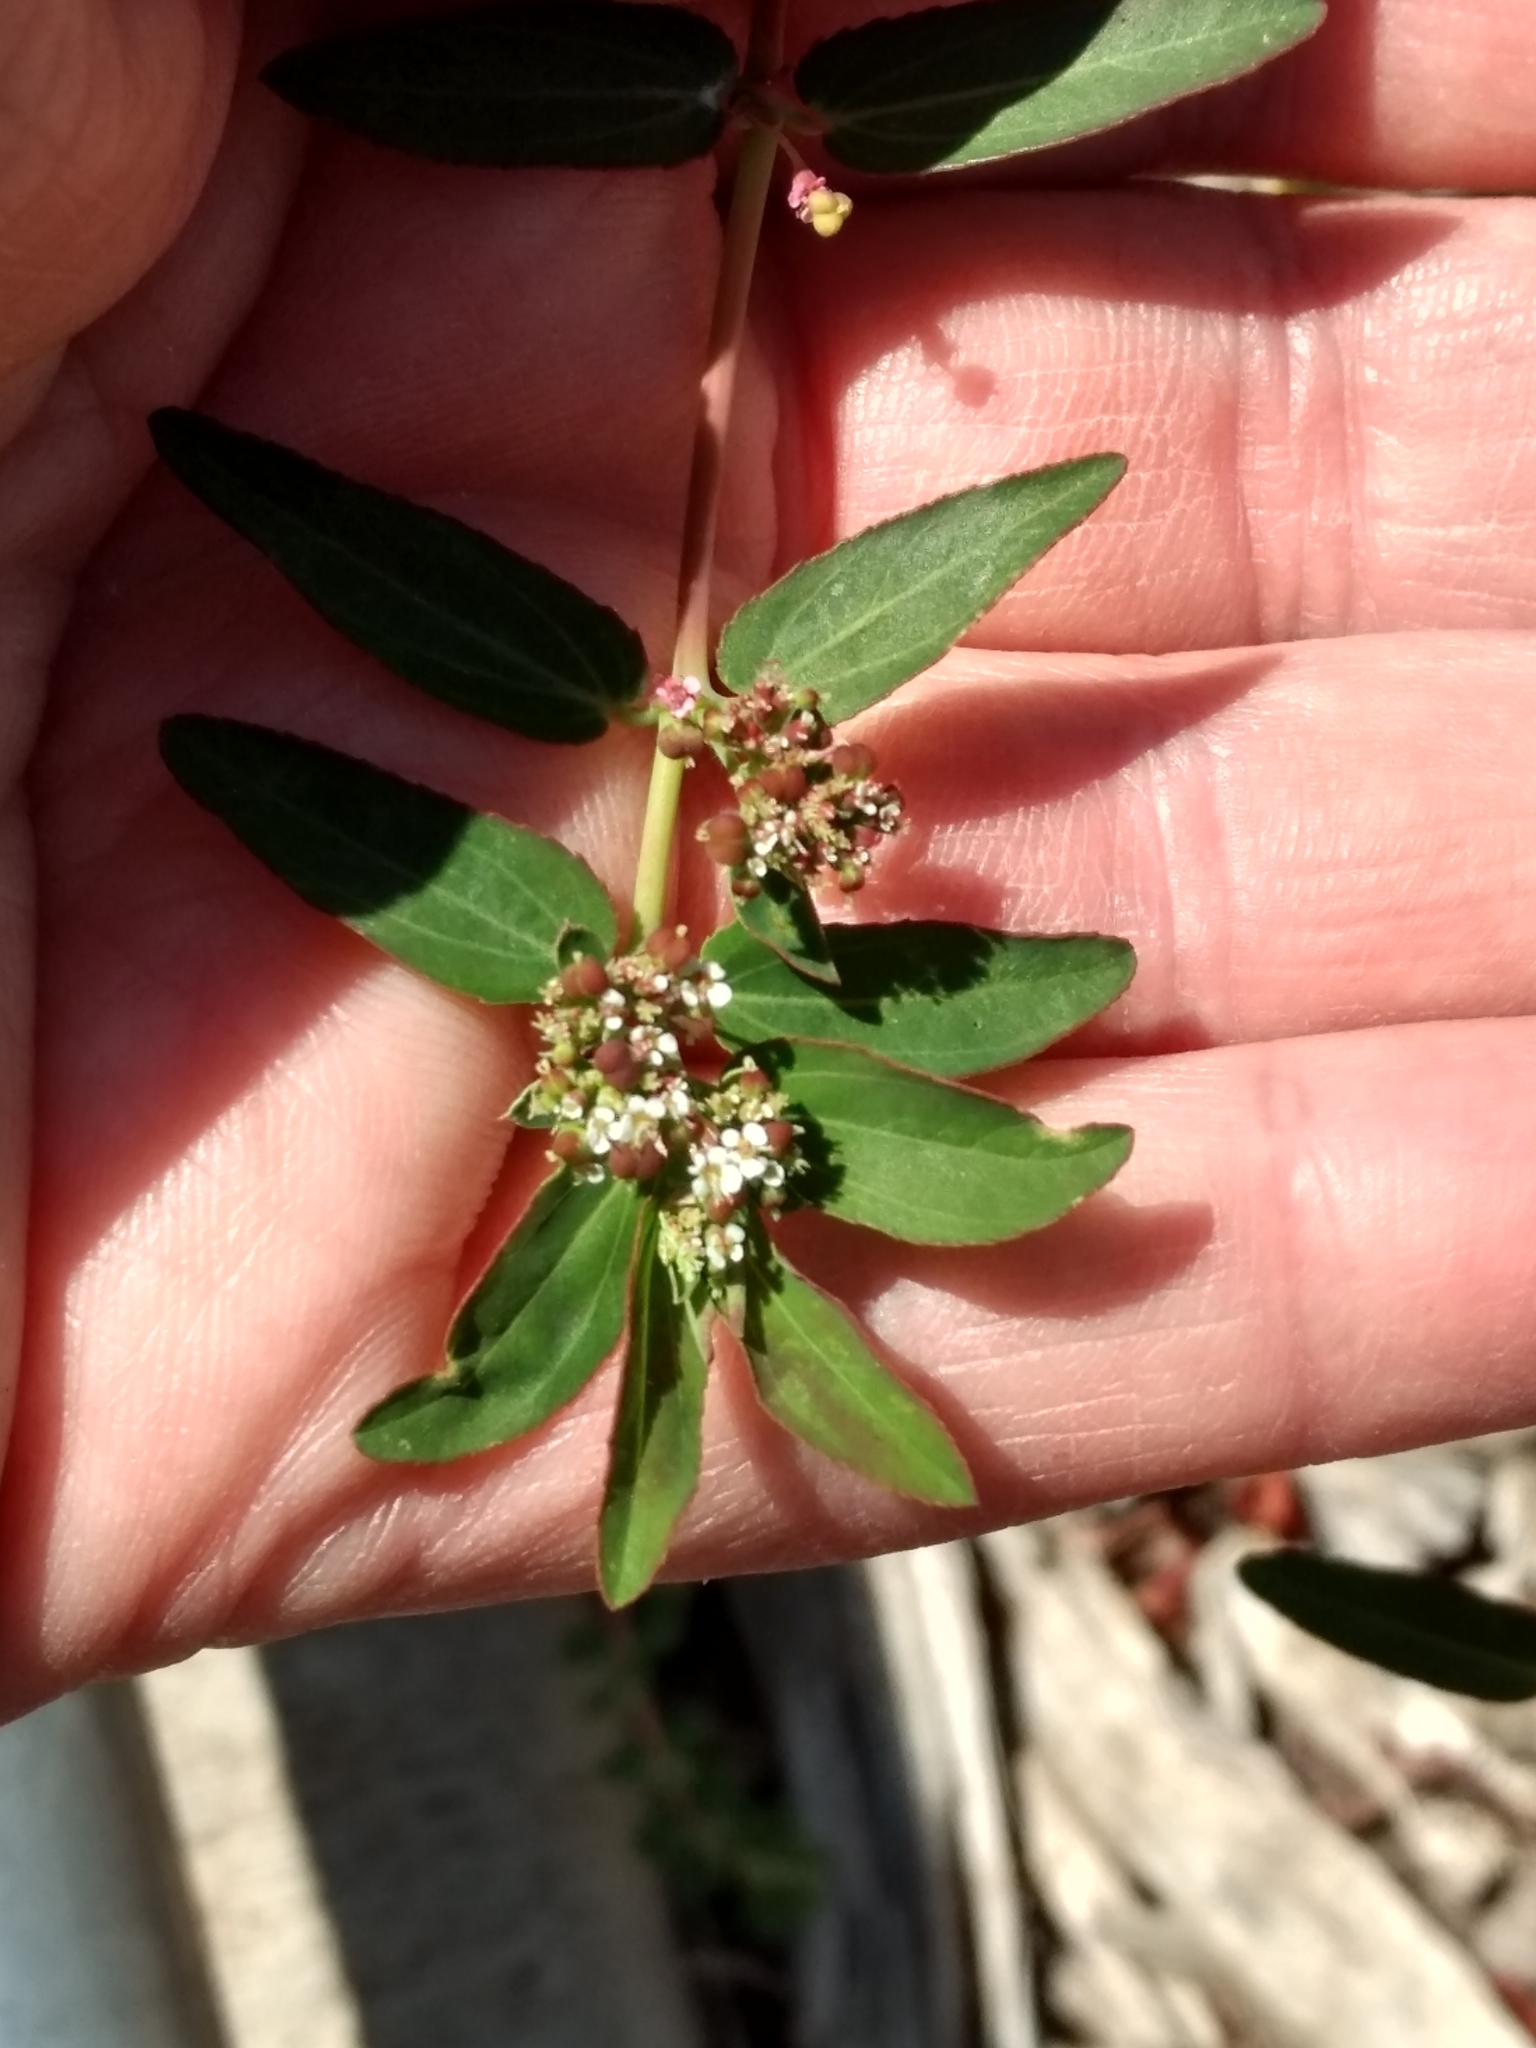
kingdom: Plantae
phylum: Tracheophyta
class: Magnoliopsida
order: Malpighiales
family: Euphorbiaceae
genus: Euphorbia
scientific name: Euphorbia hypericifolia
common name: Graceful sandmat
